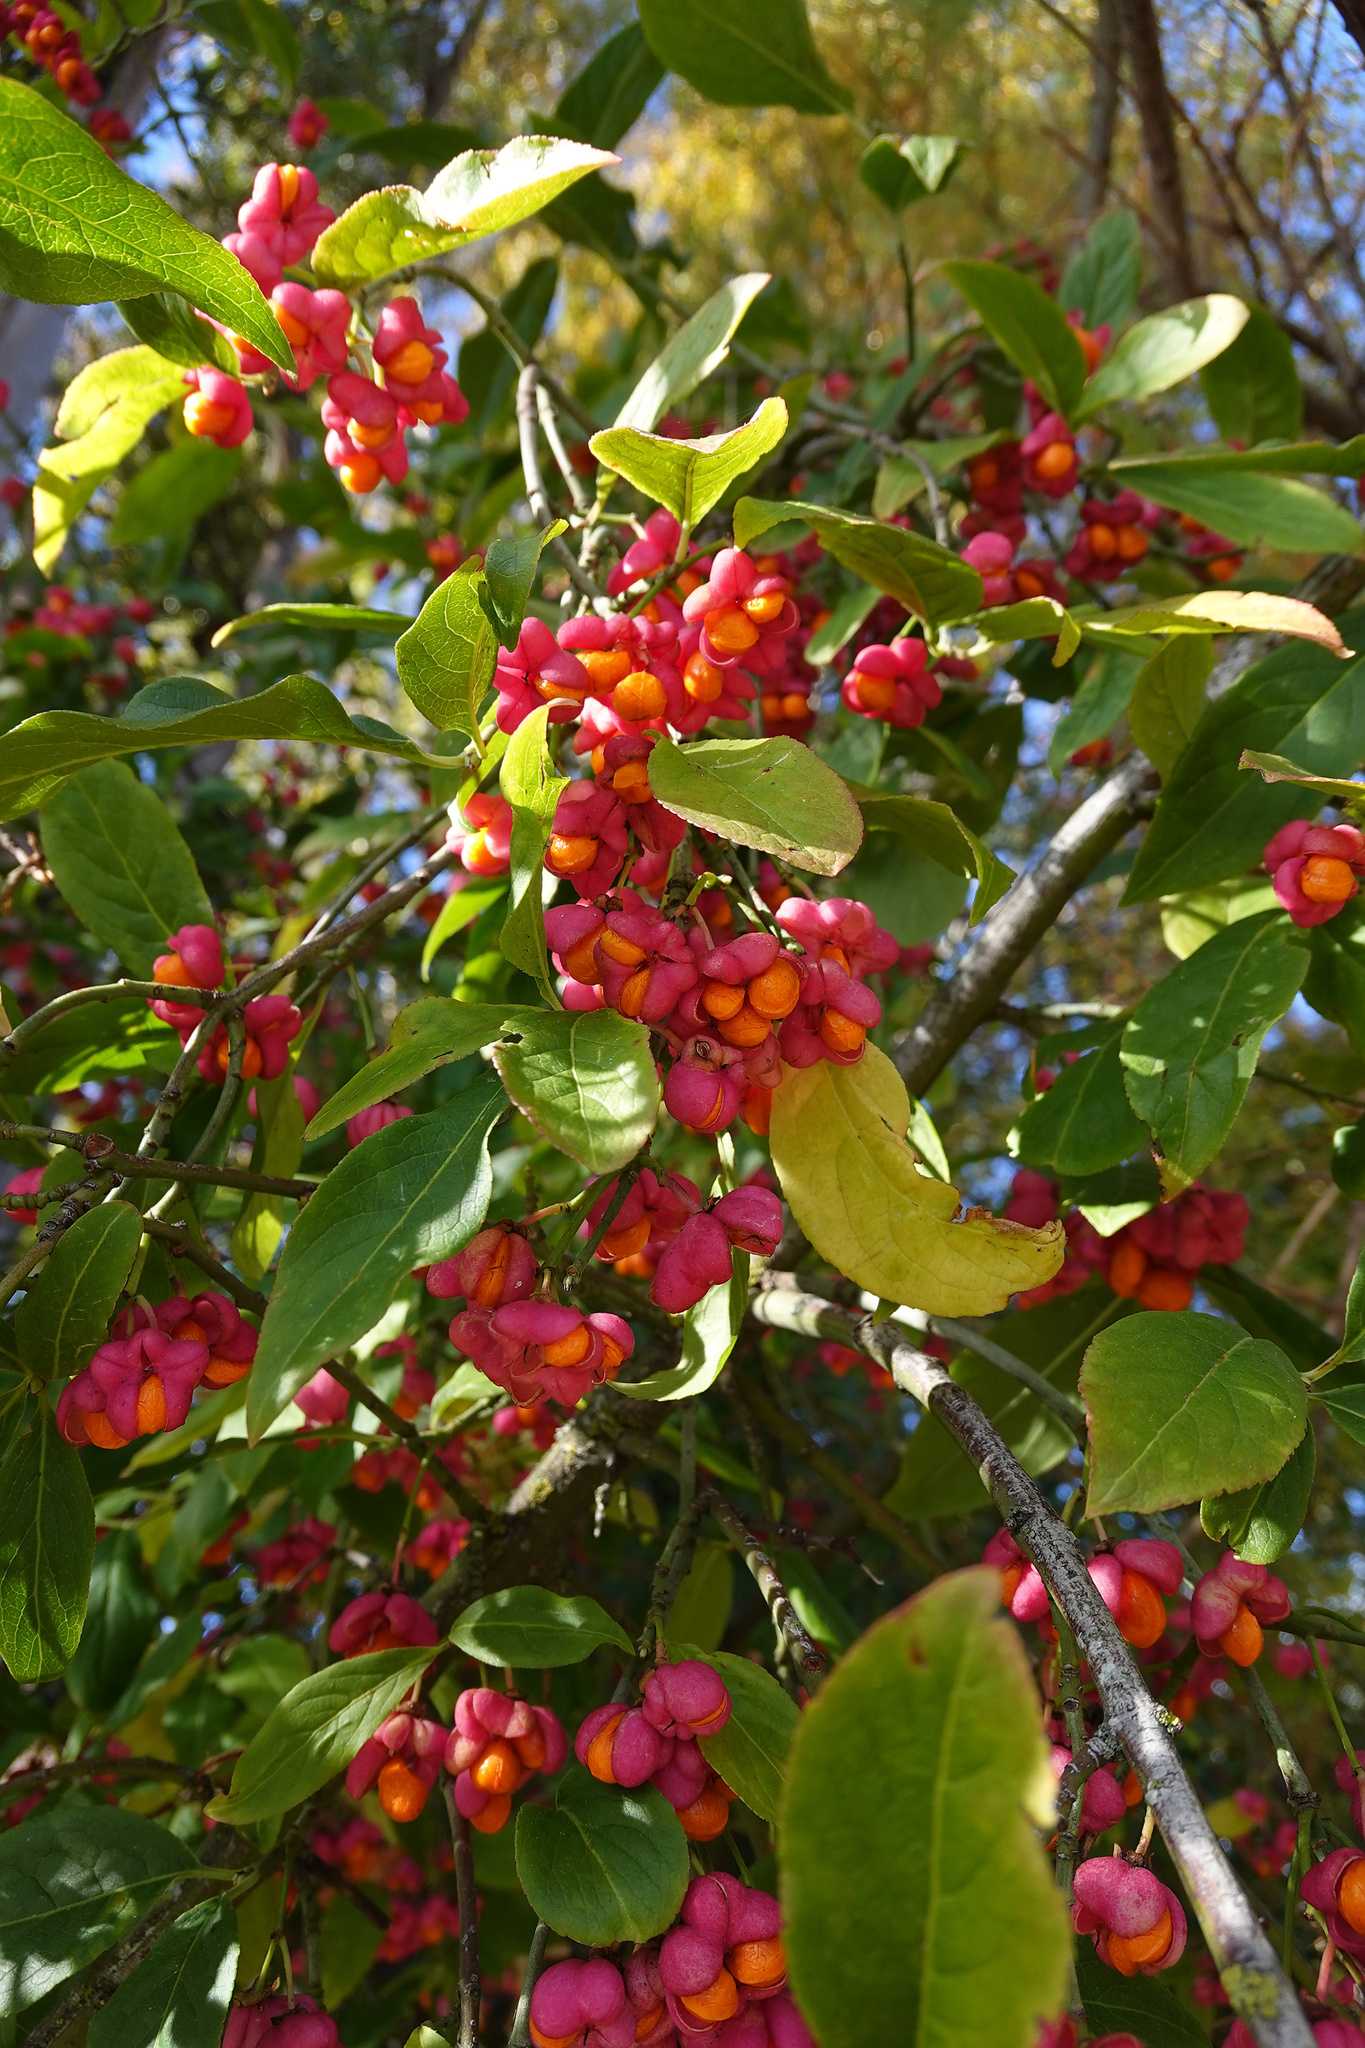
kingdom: Plantae
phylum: Tracheophyta
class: Magnoliopsida
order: Celastrales
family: Celastraceae
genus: Euonymus
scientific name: Euonymus europaeus
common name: Spindle
